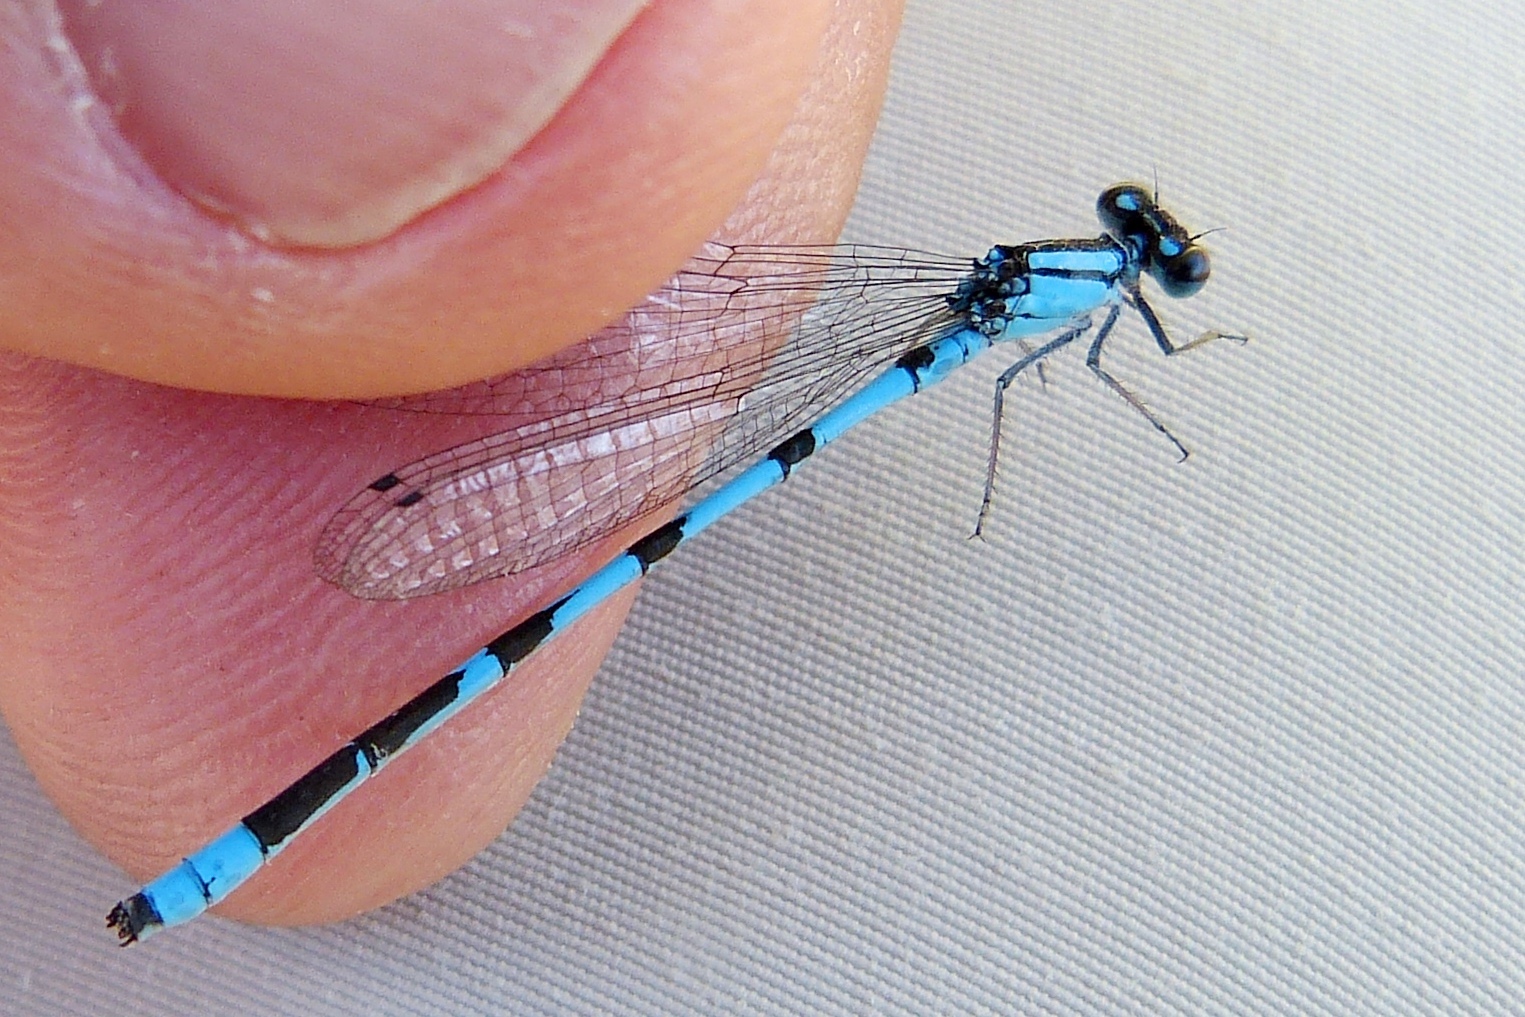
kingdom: Animalia
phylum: Arthropoda
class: Insecta
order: Odonata
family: Coenagrionidae
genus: Enallagma
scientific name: Enallagma hageni
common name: Hagen's bluet
